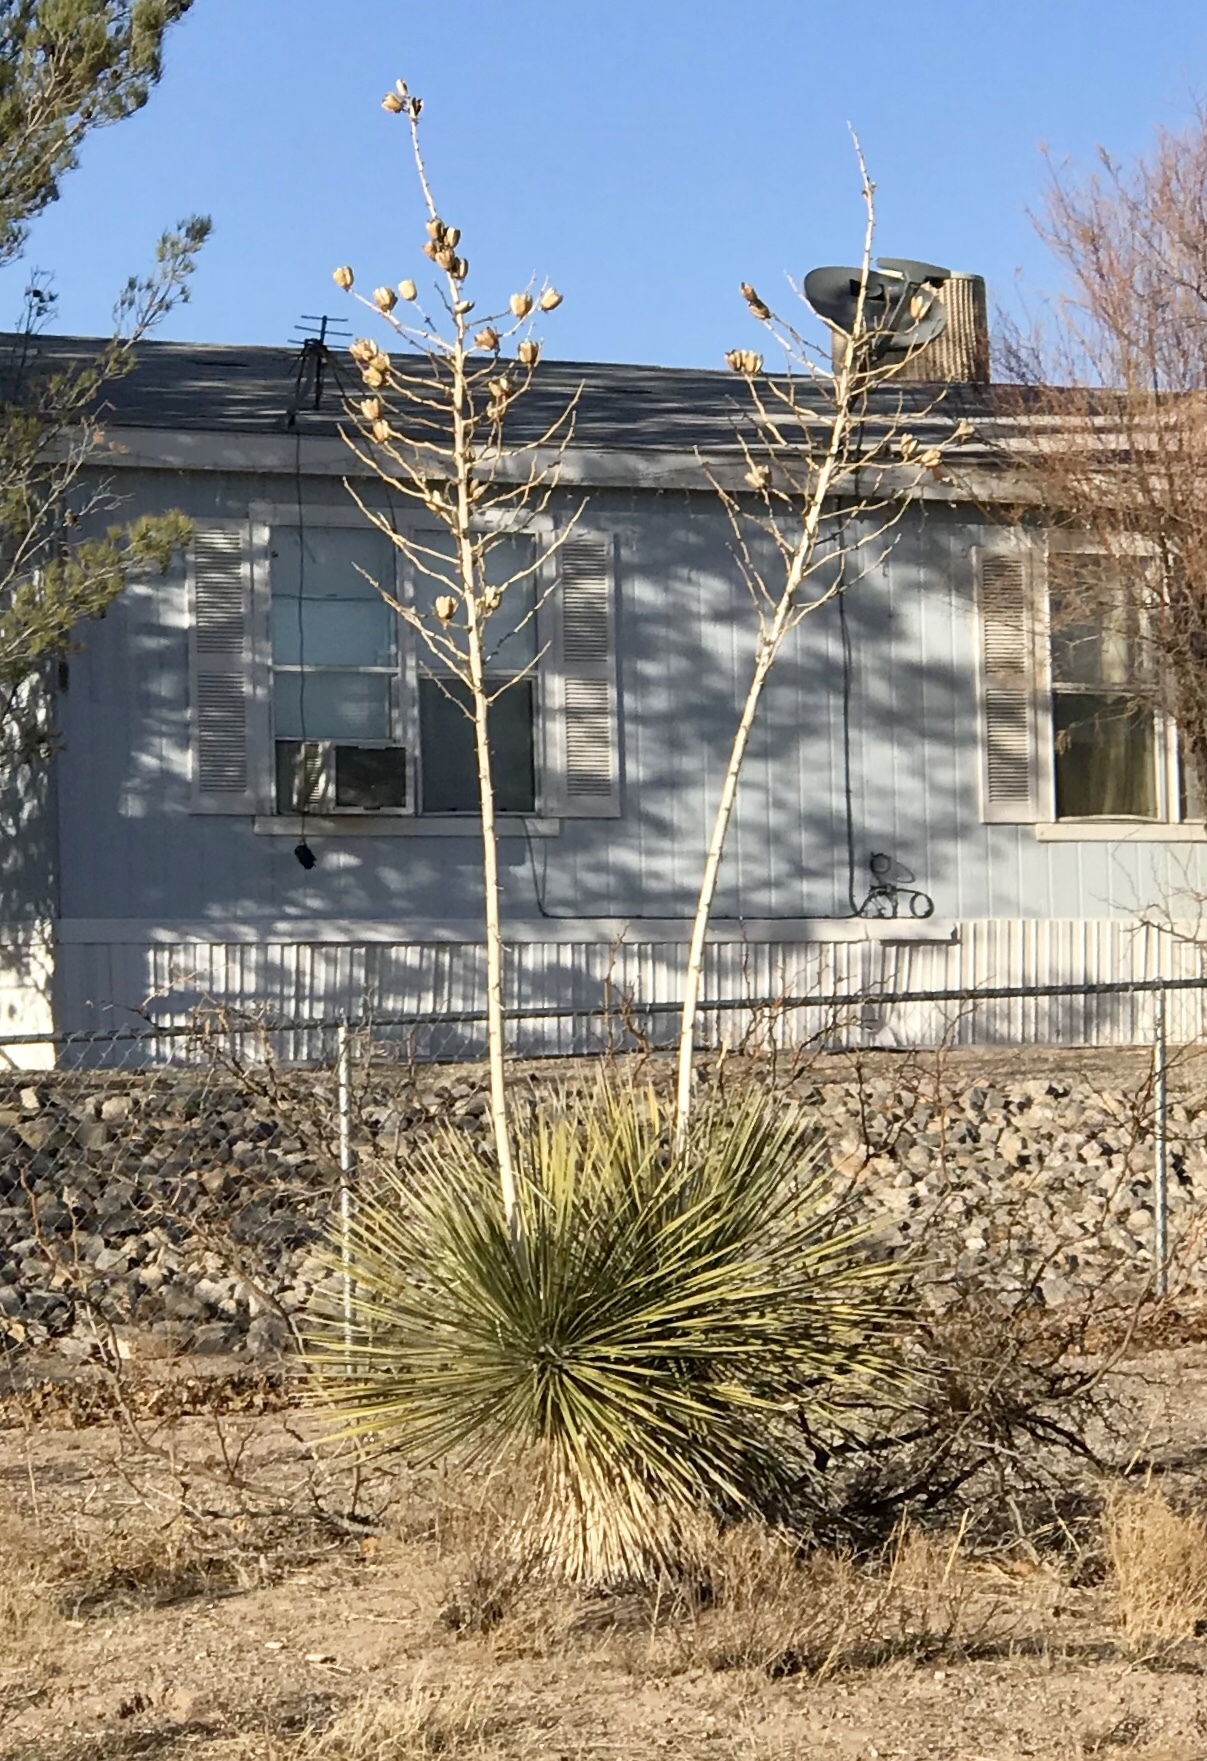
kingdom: Plantae
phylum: Tracheophyta
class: Liliopsida
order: Asparagales
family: Asparagaceae
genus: Yucca
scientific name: Yucca elata
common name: Palmella
